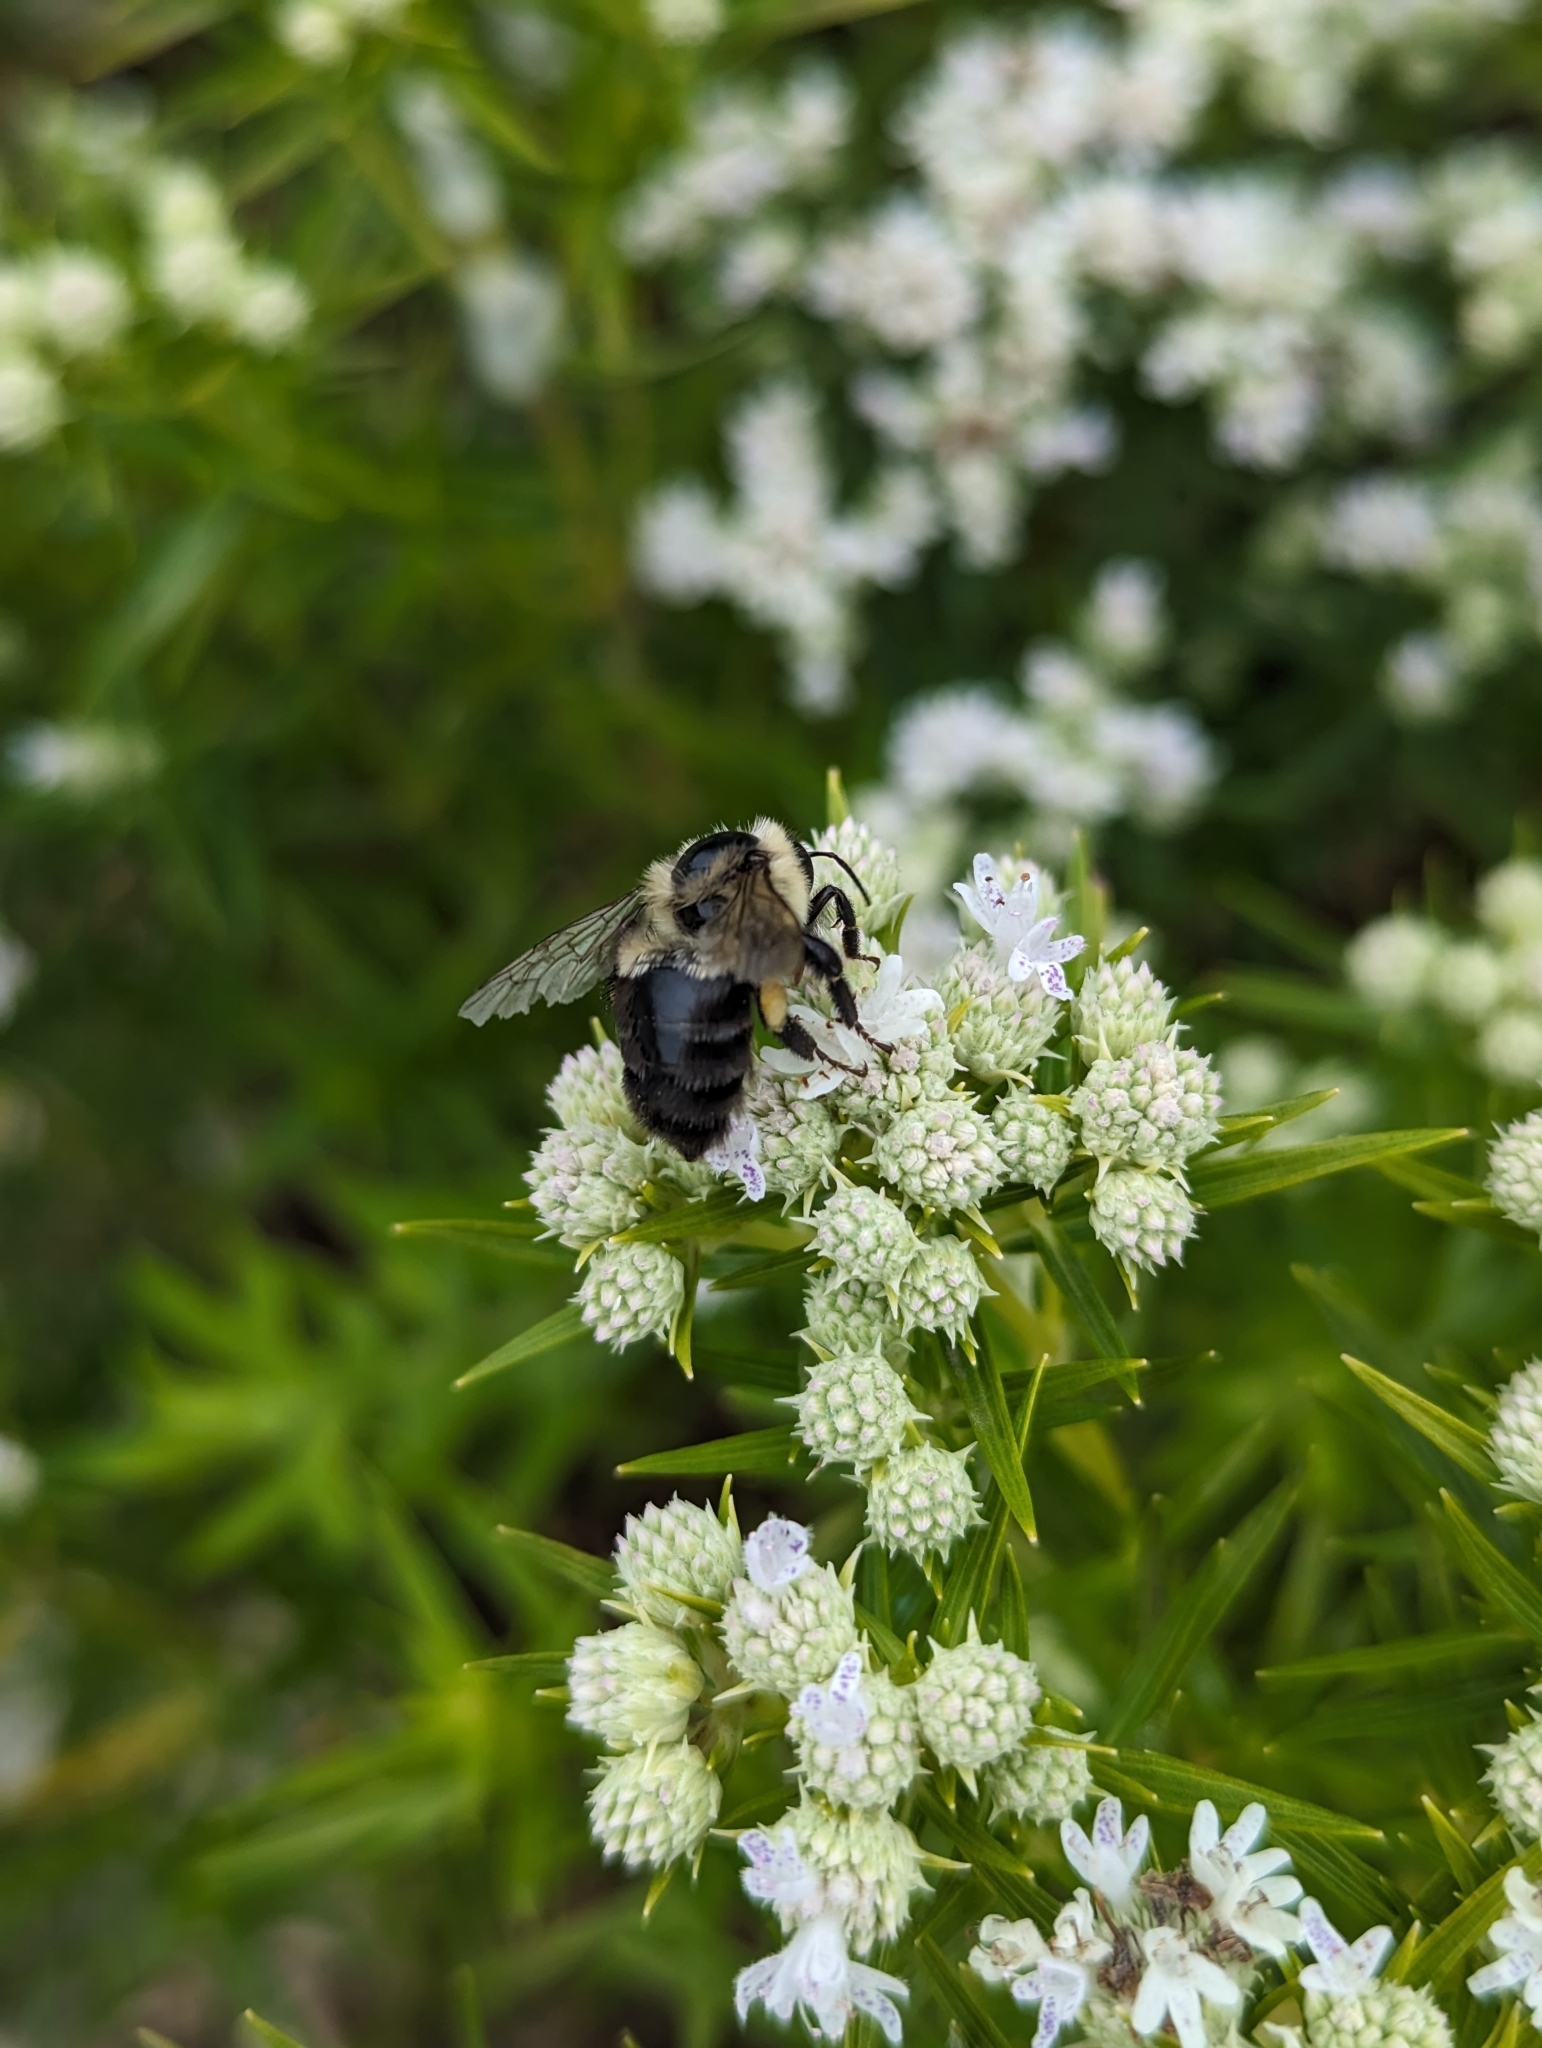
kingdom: Animalia
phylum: Arthropoda
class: Insecta
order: Hymenoptera
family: Apidae
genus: Bombus
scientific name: Bombus impatiens
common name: Common eastern bumble bee
